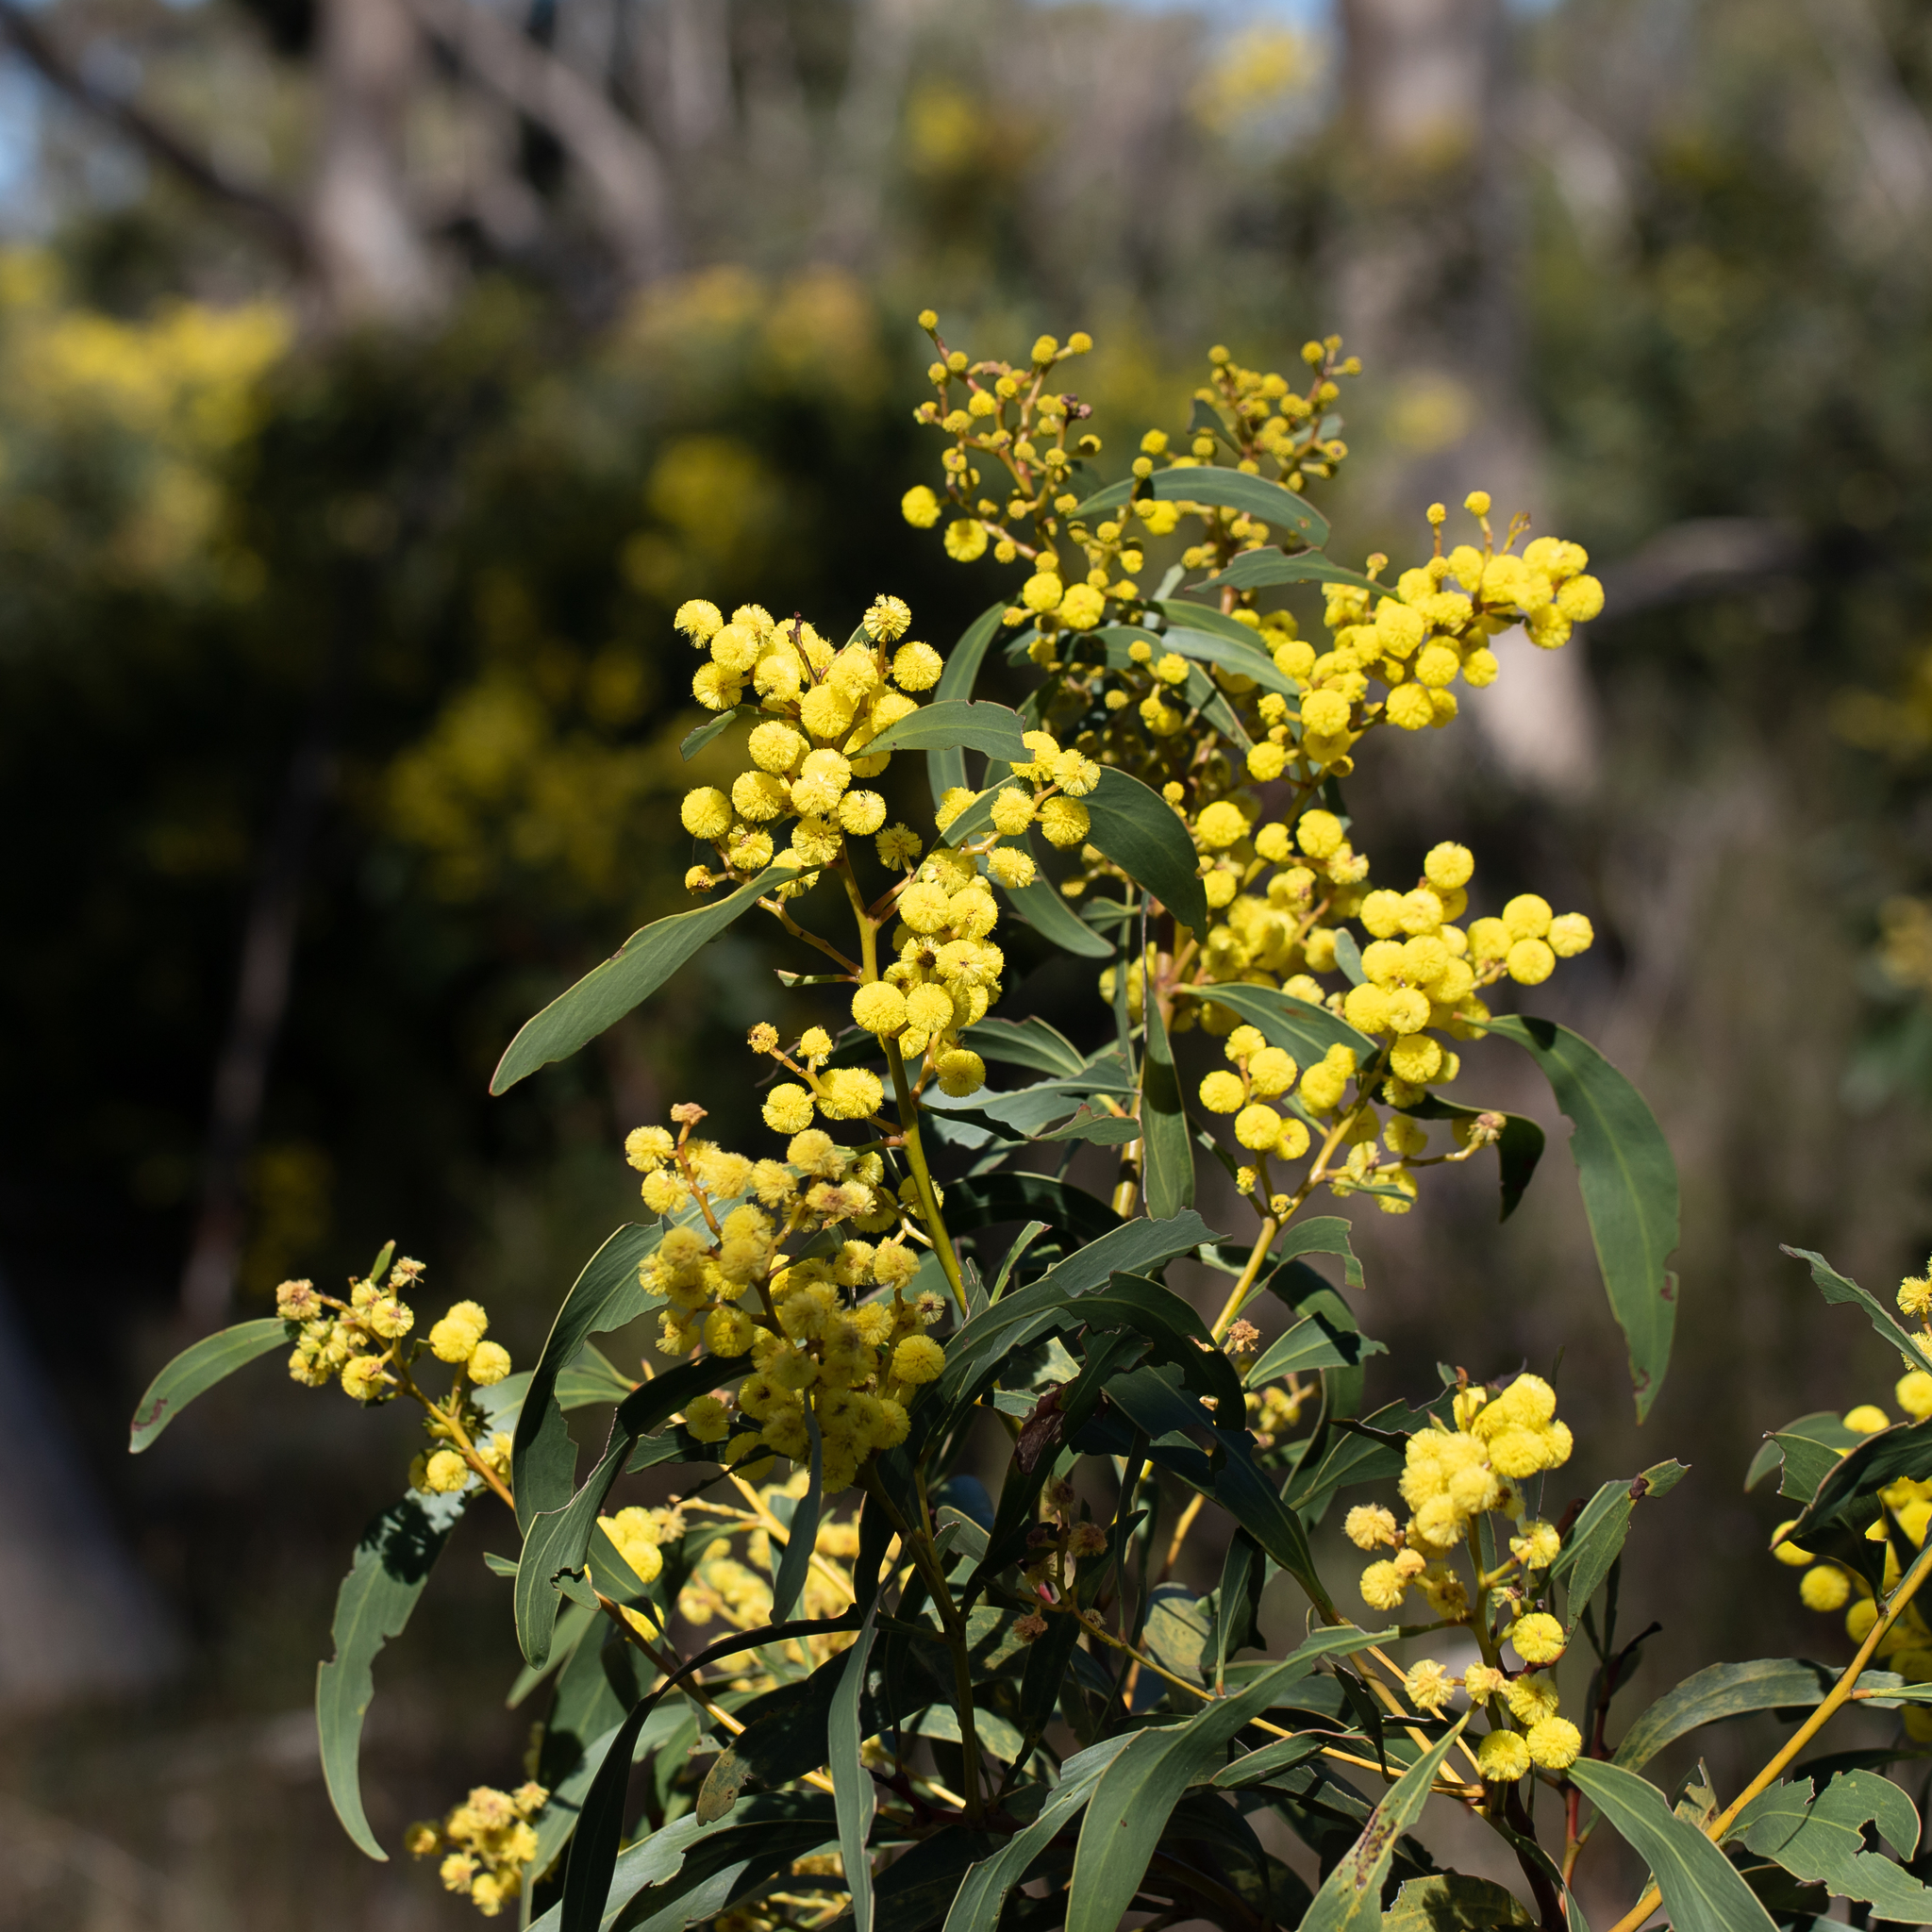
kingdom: Plantae
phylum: Tracheophyta
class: Magnoliopsida
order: Fabales
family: Fabaceae
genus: Acacia
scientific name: Acacia pycnantha
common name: Golden wattle
